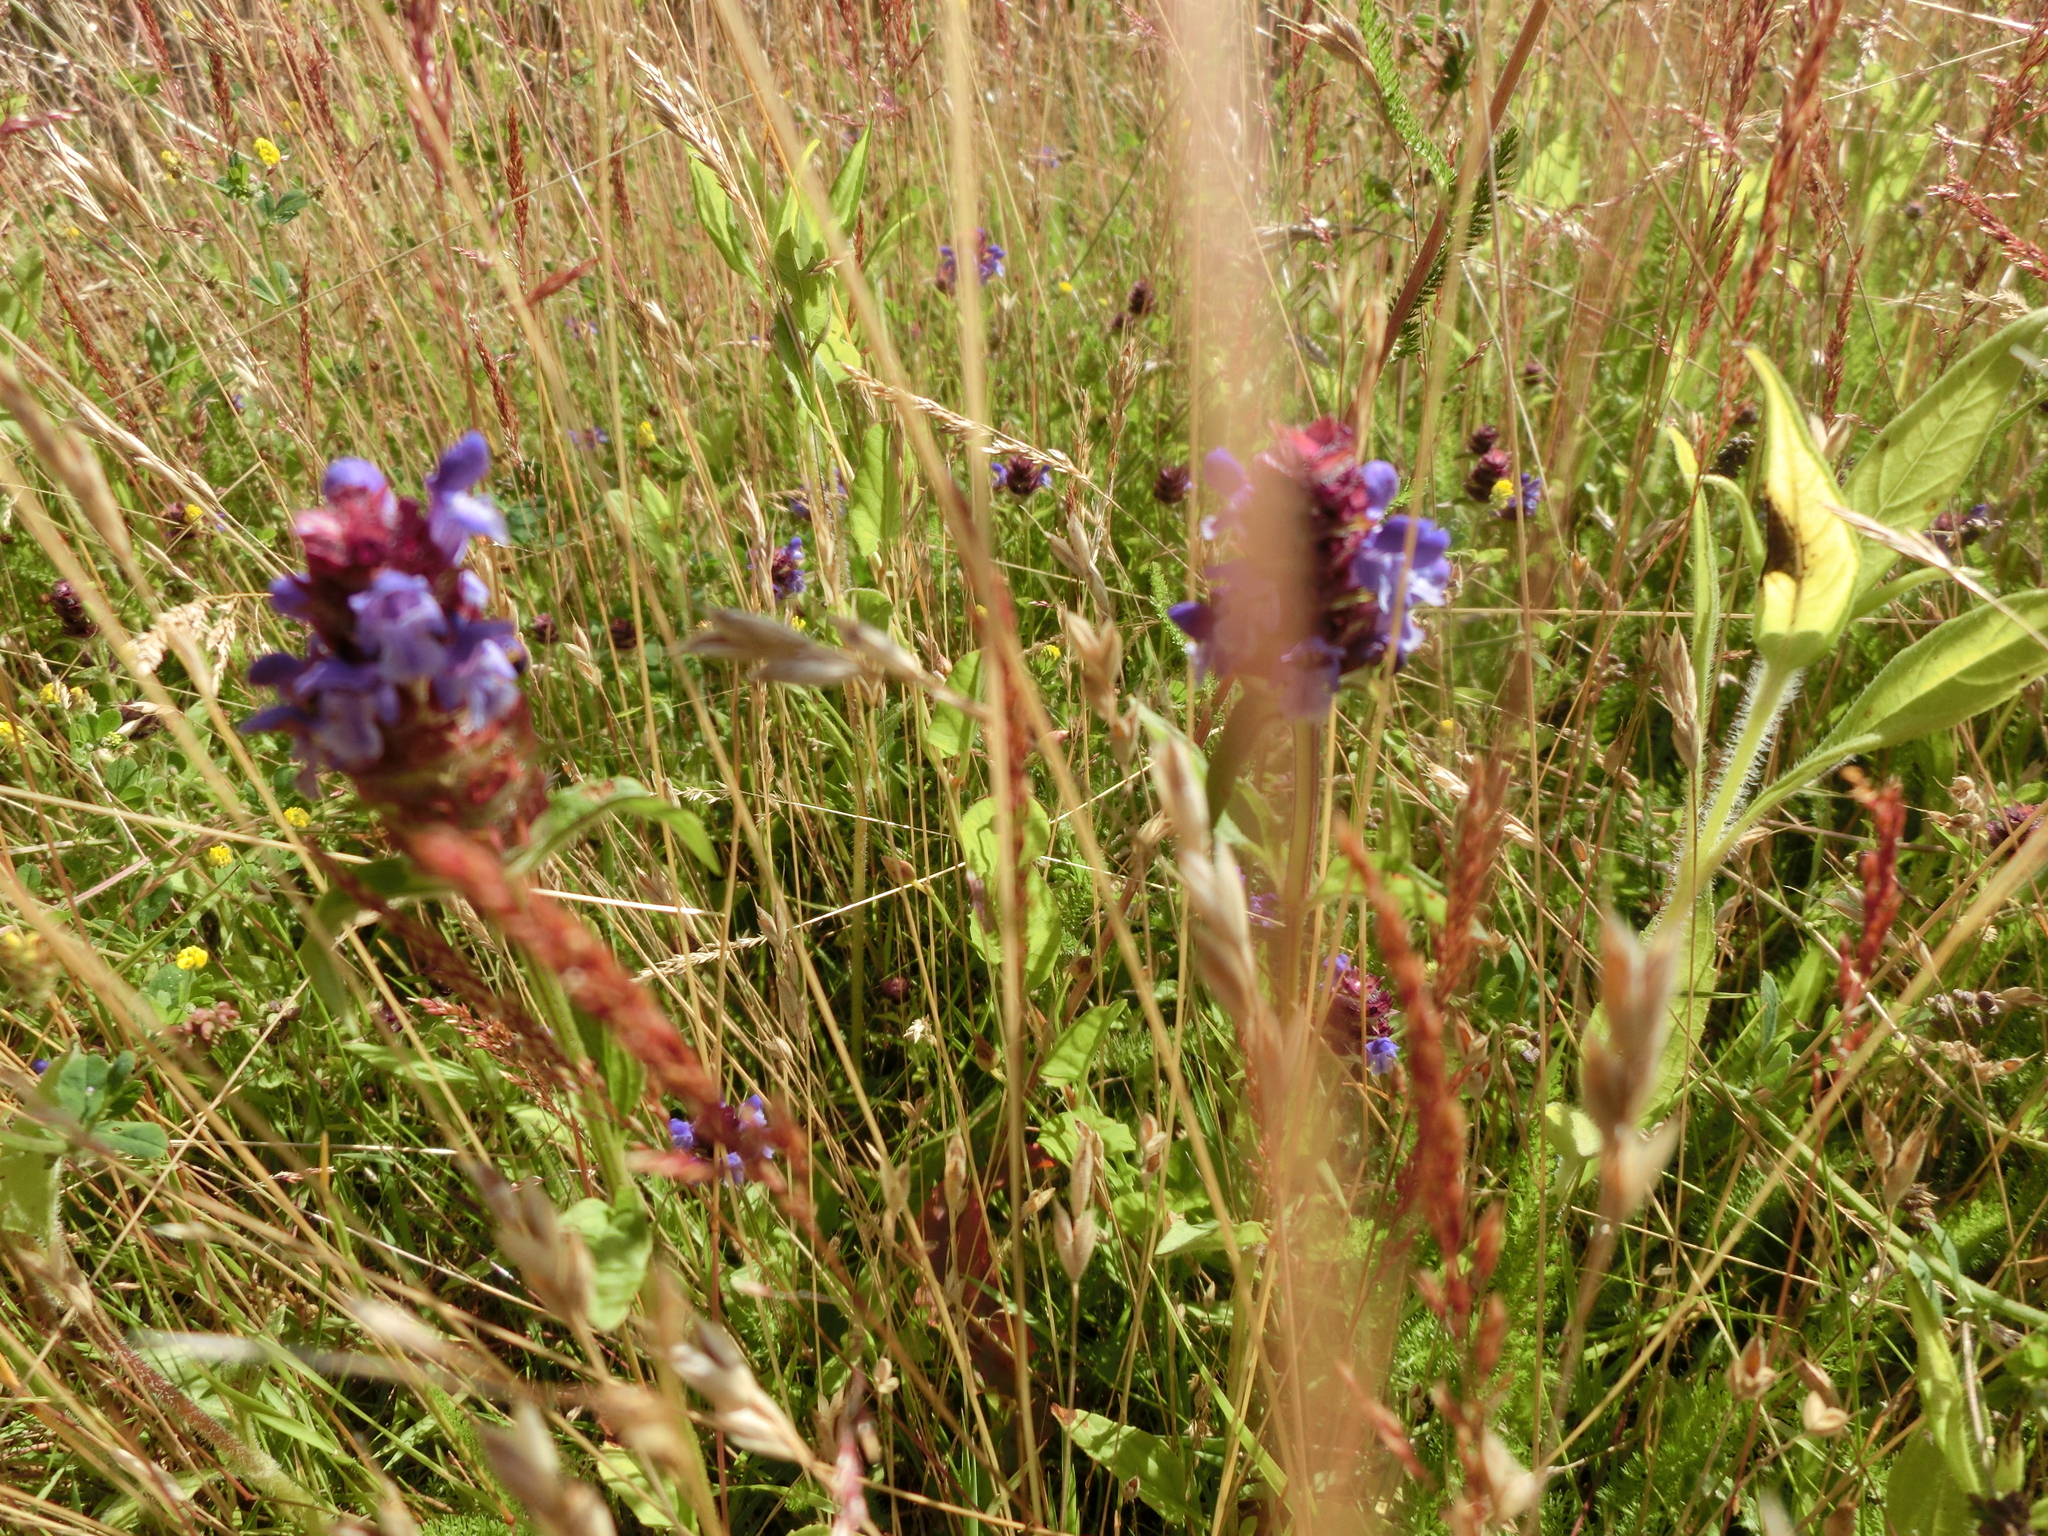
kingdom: Plantae
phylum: Tracheophyta
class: Magnoliopsida
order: Lamiales
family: Lamiaceae
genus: Prunella
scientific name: Prunella vulgaris
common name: Heal-all
